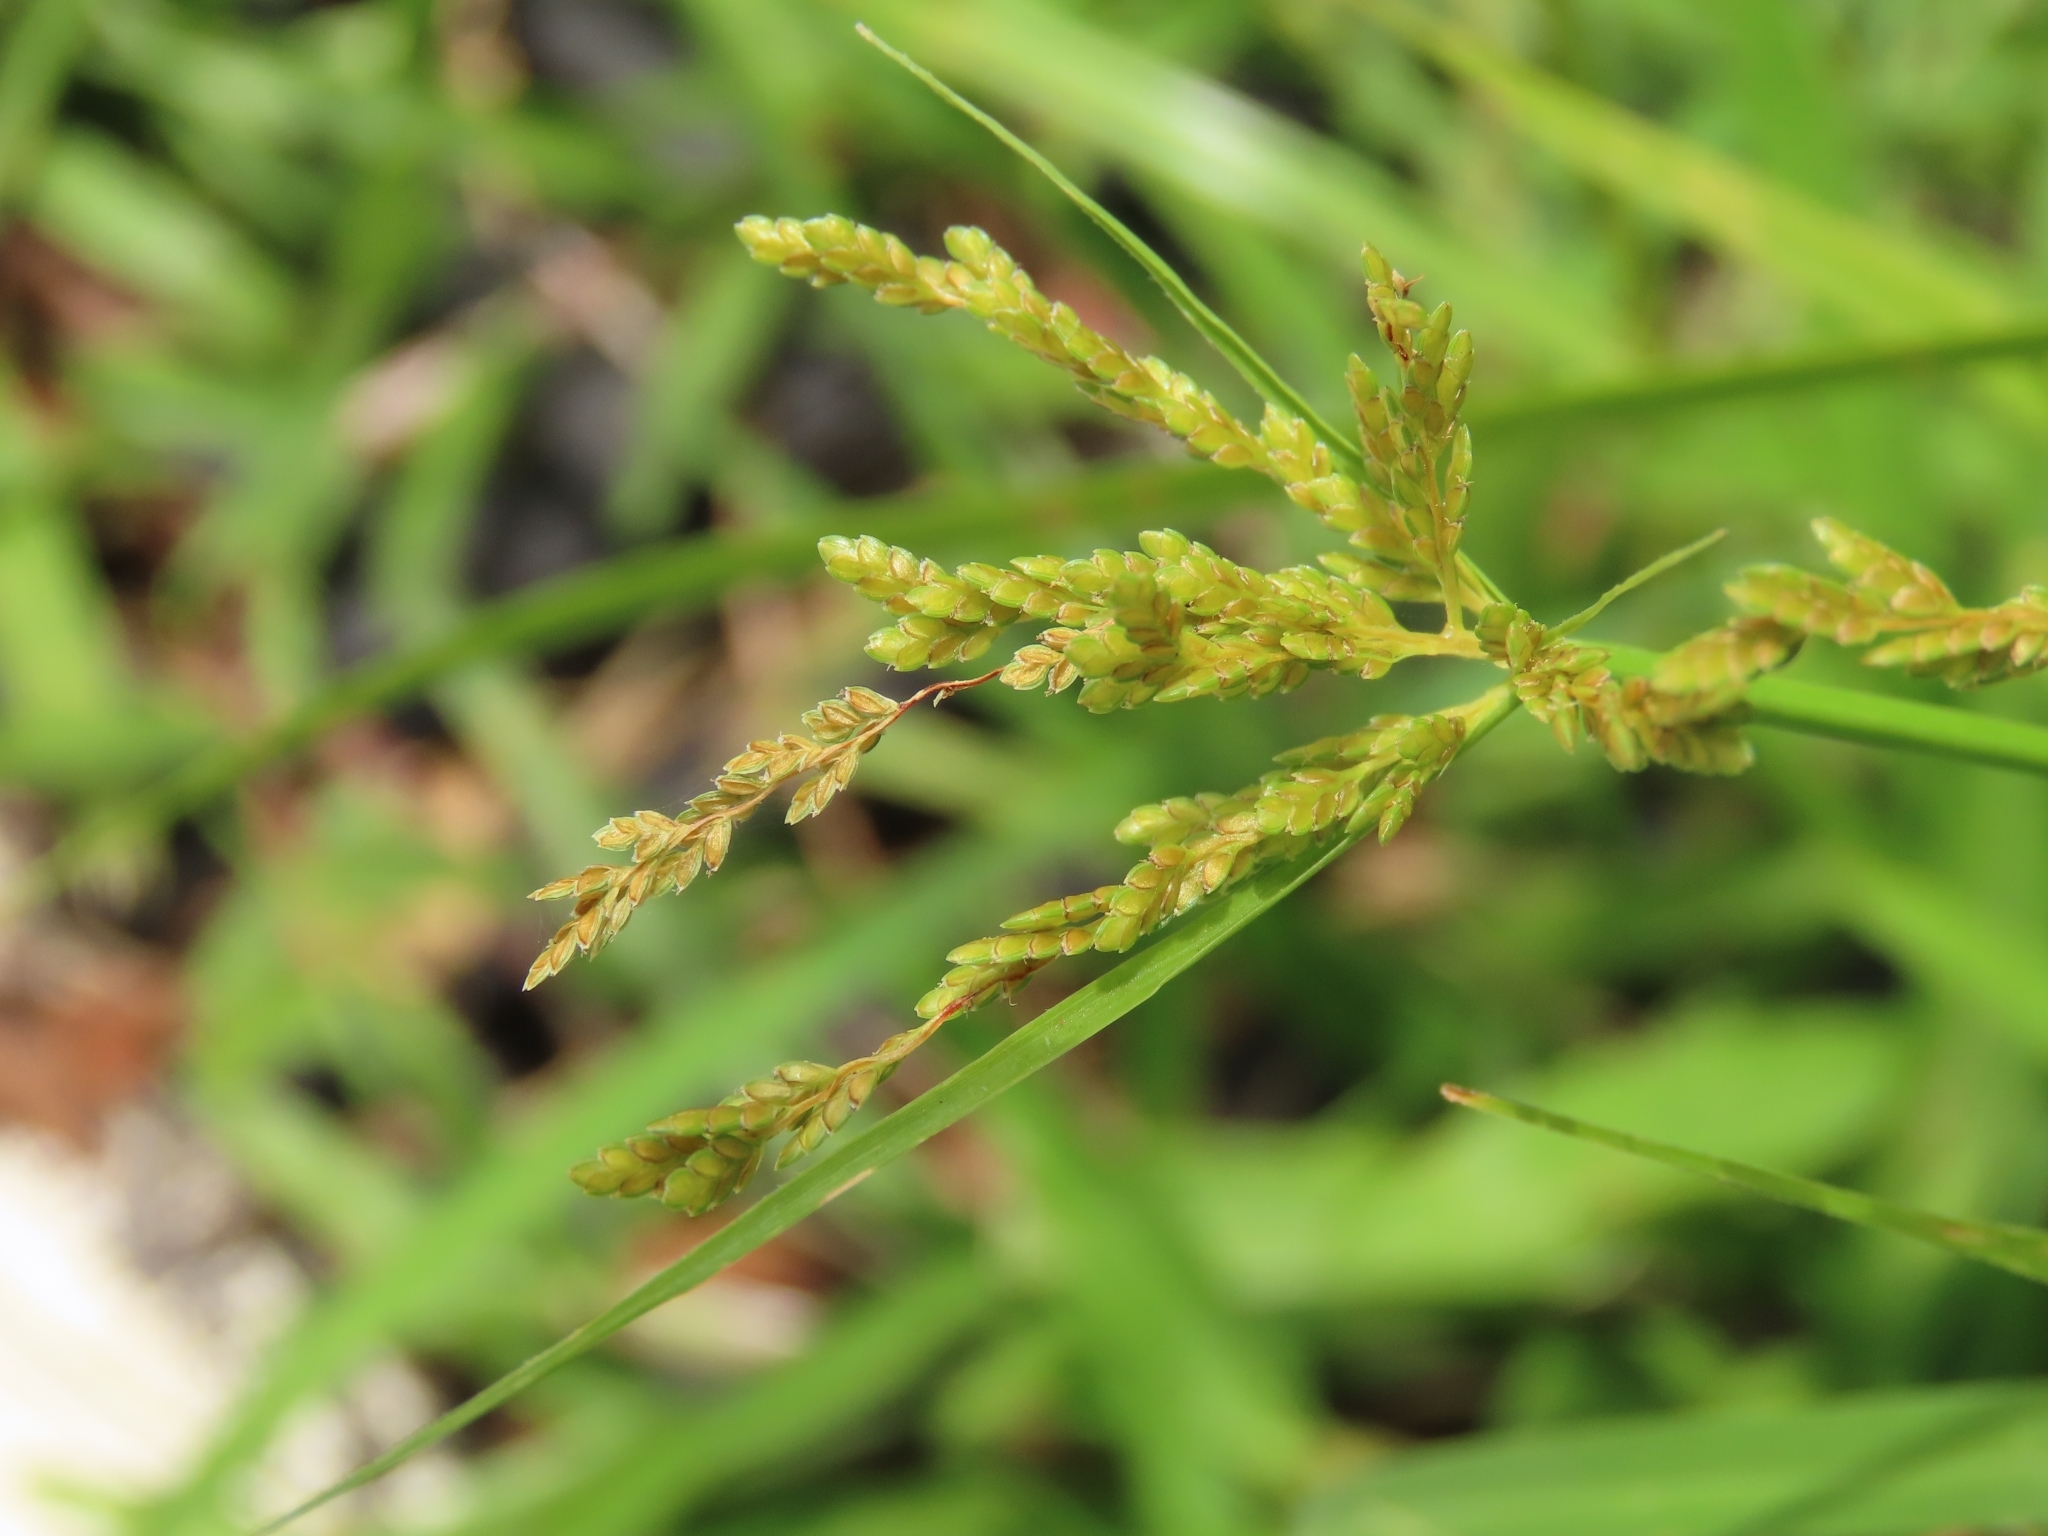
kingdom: Plantae
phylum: Tracheophyta
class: Liliopsida
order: Poales
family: Cyperaceae
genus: Cyperus
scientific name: Cyperus iria
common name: Ricefield flatsedge
